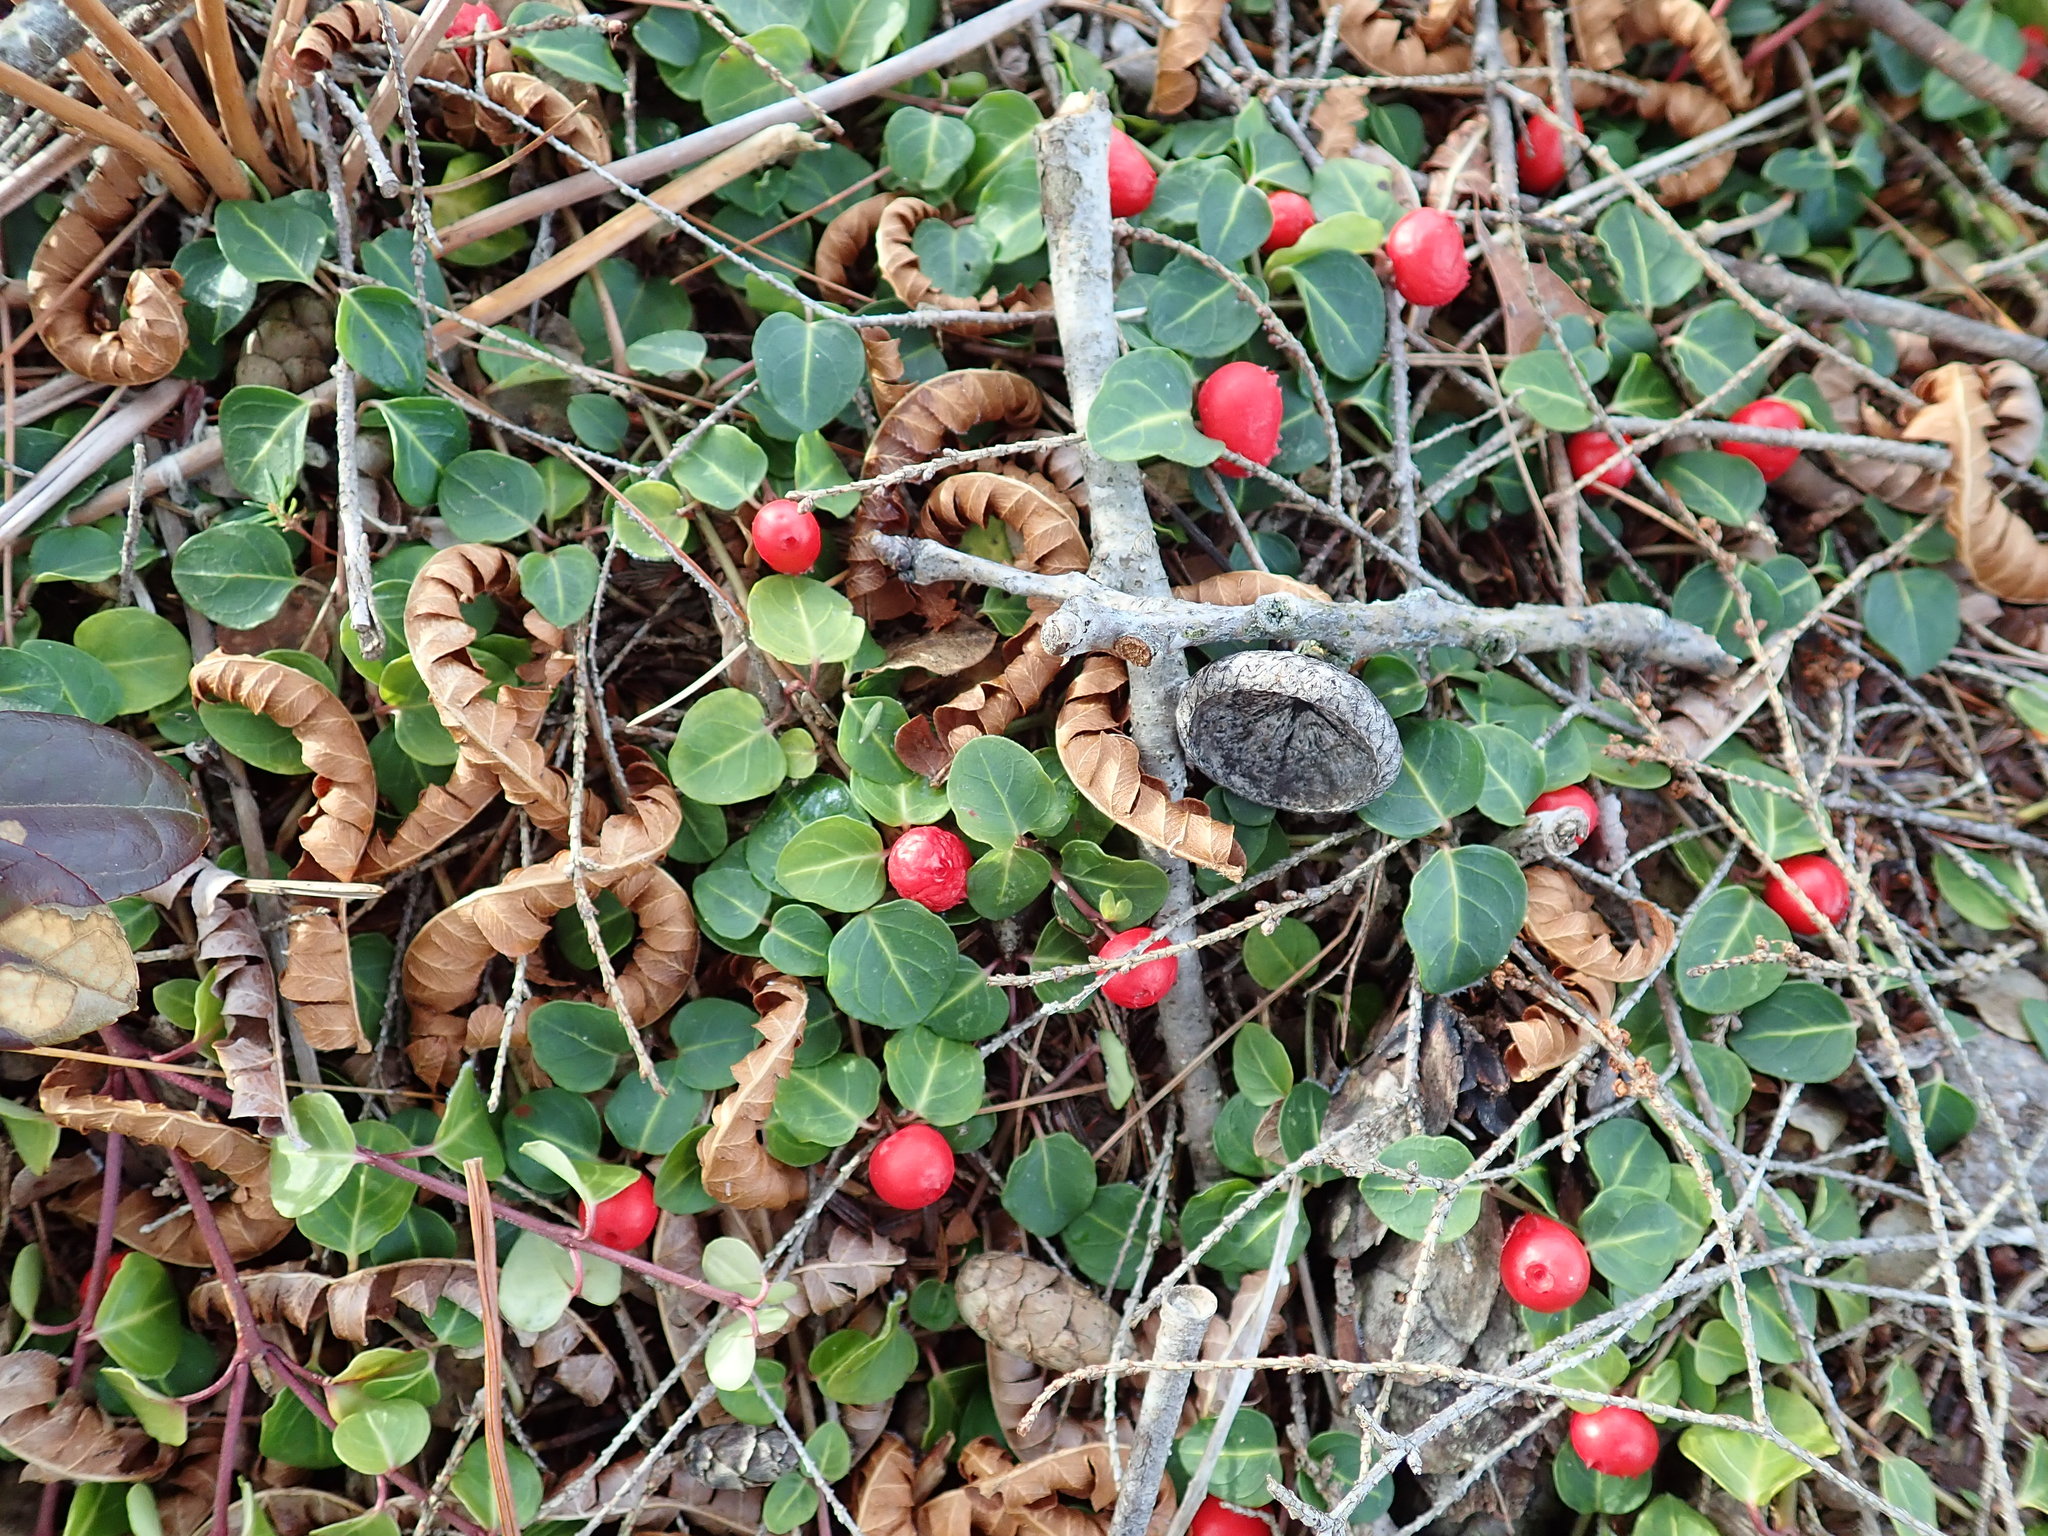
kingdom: Plantae
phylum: Tracheophyta
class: Magnoliopsida
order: Gentianales
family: Rubiaceae
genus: Mitchella
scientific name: Mitchella repens
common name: Partridge-berry
